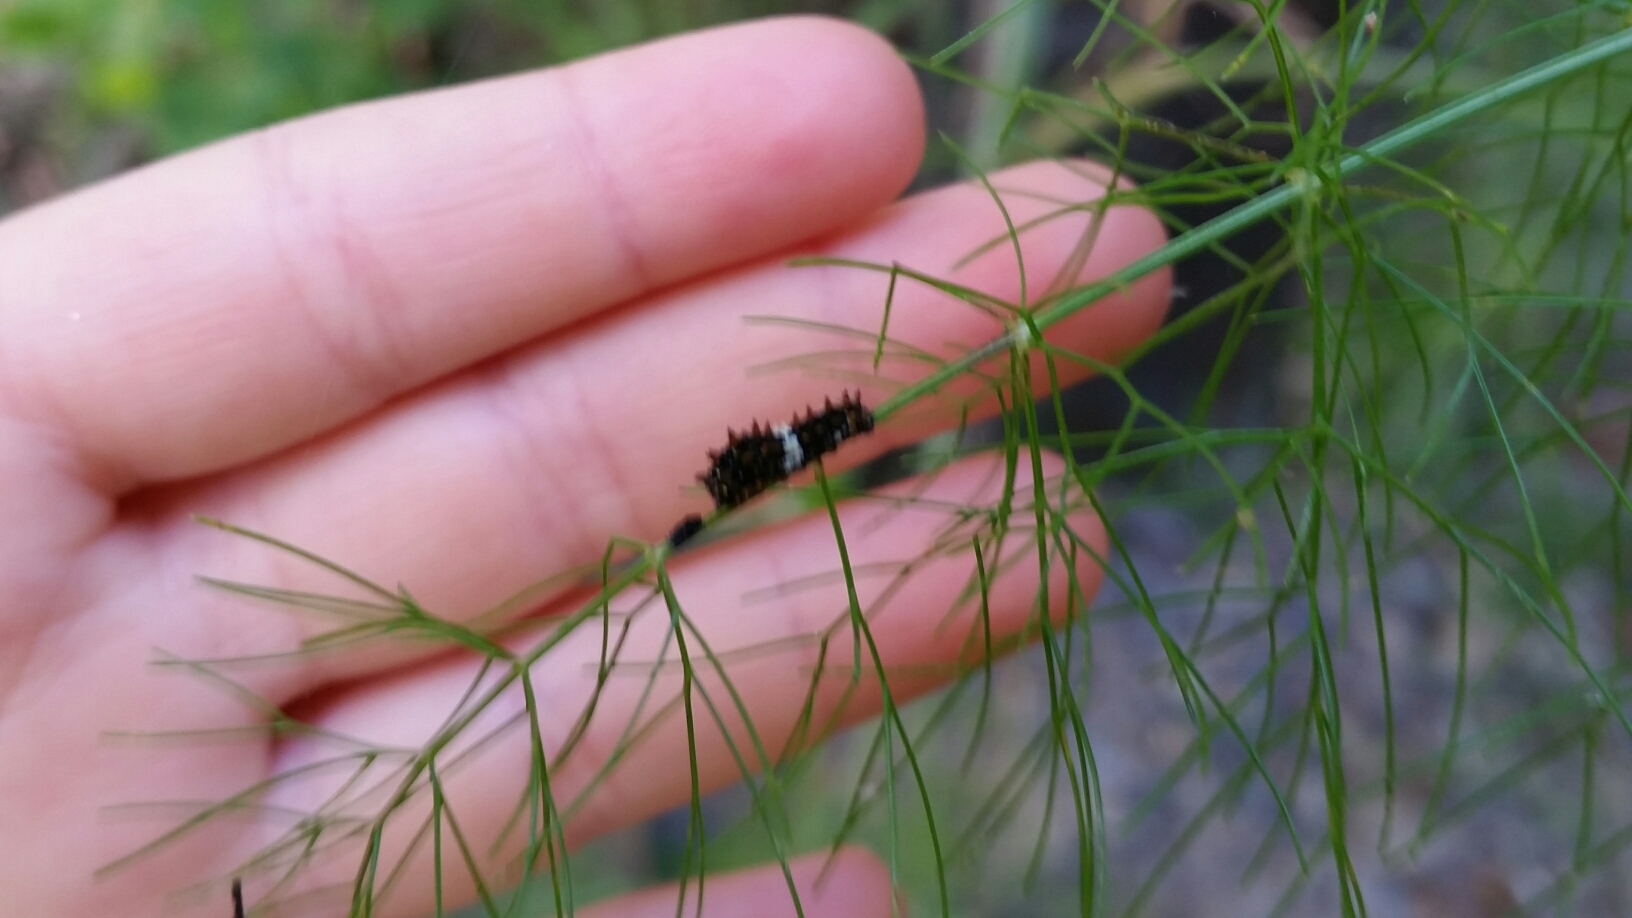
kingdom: Animalia
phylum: Arthropoda
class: Insecta
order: Lepidoptera
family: Papilionidae
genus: Papilio
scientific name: Papilio zelicaon
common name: Anise swallowtail
